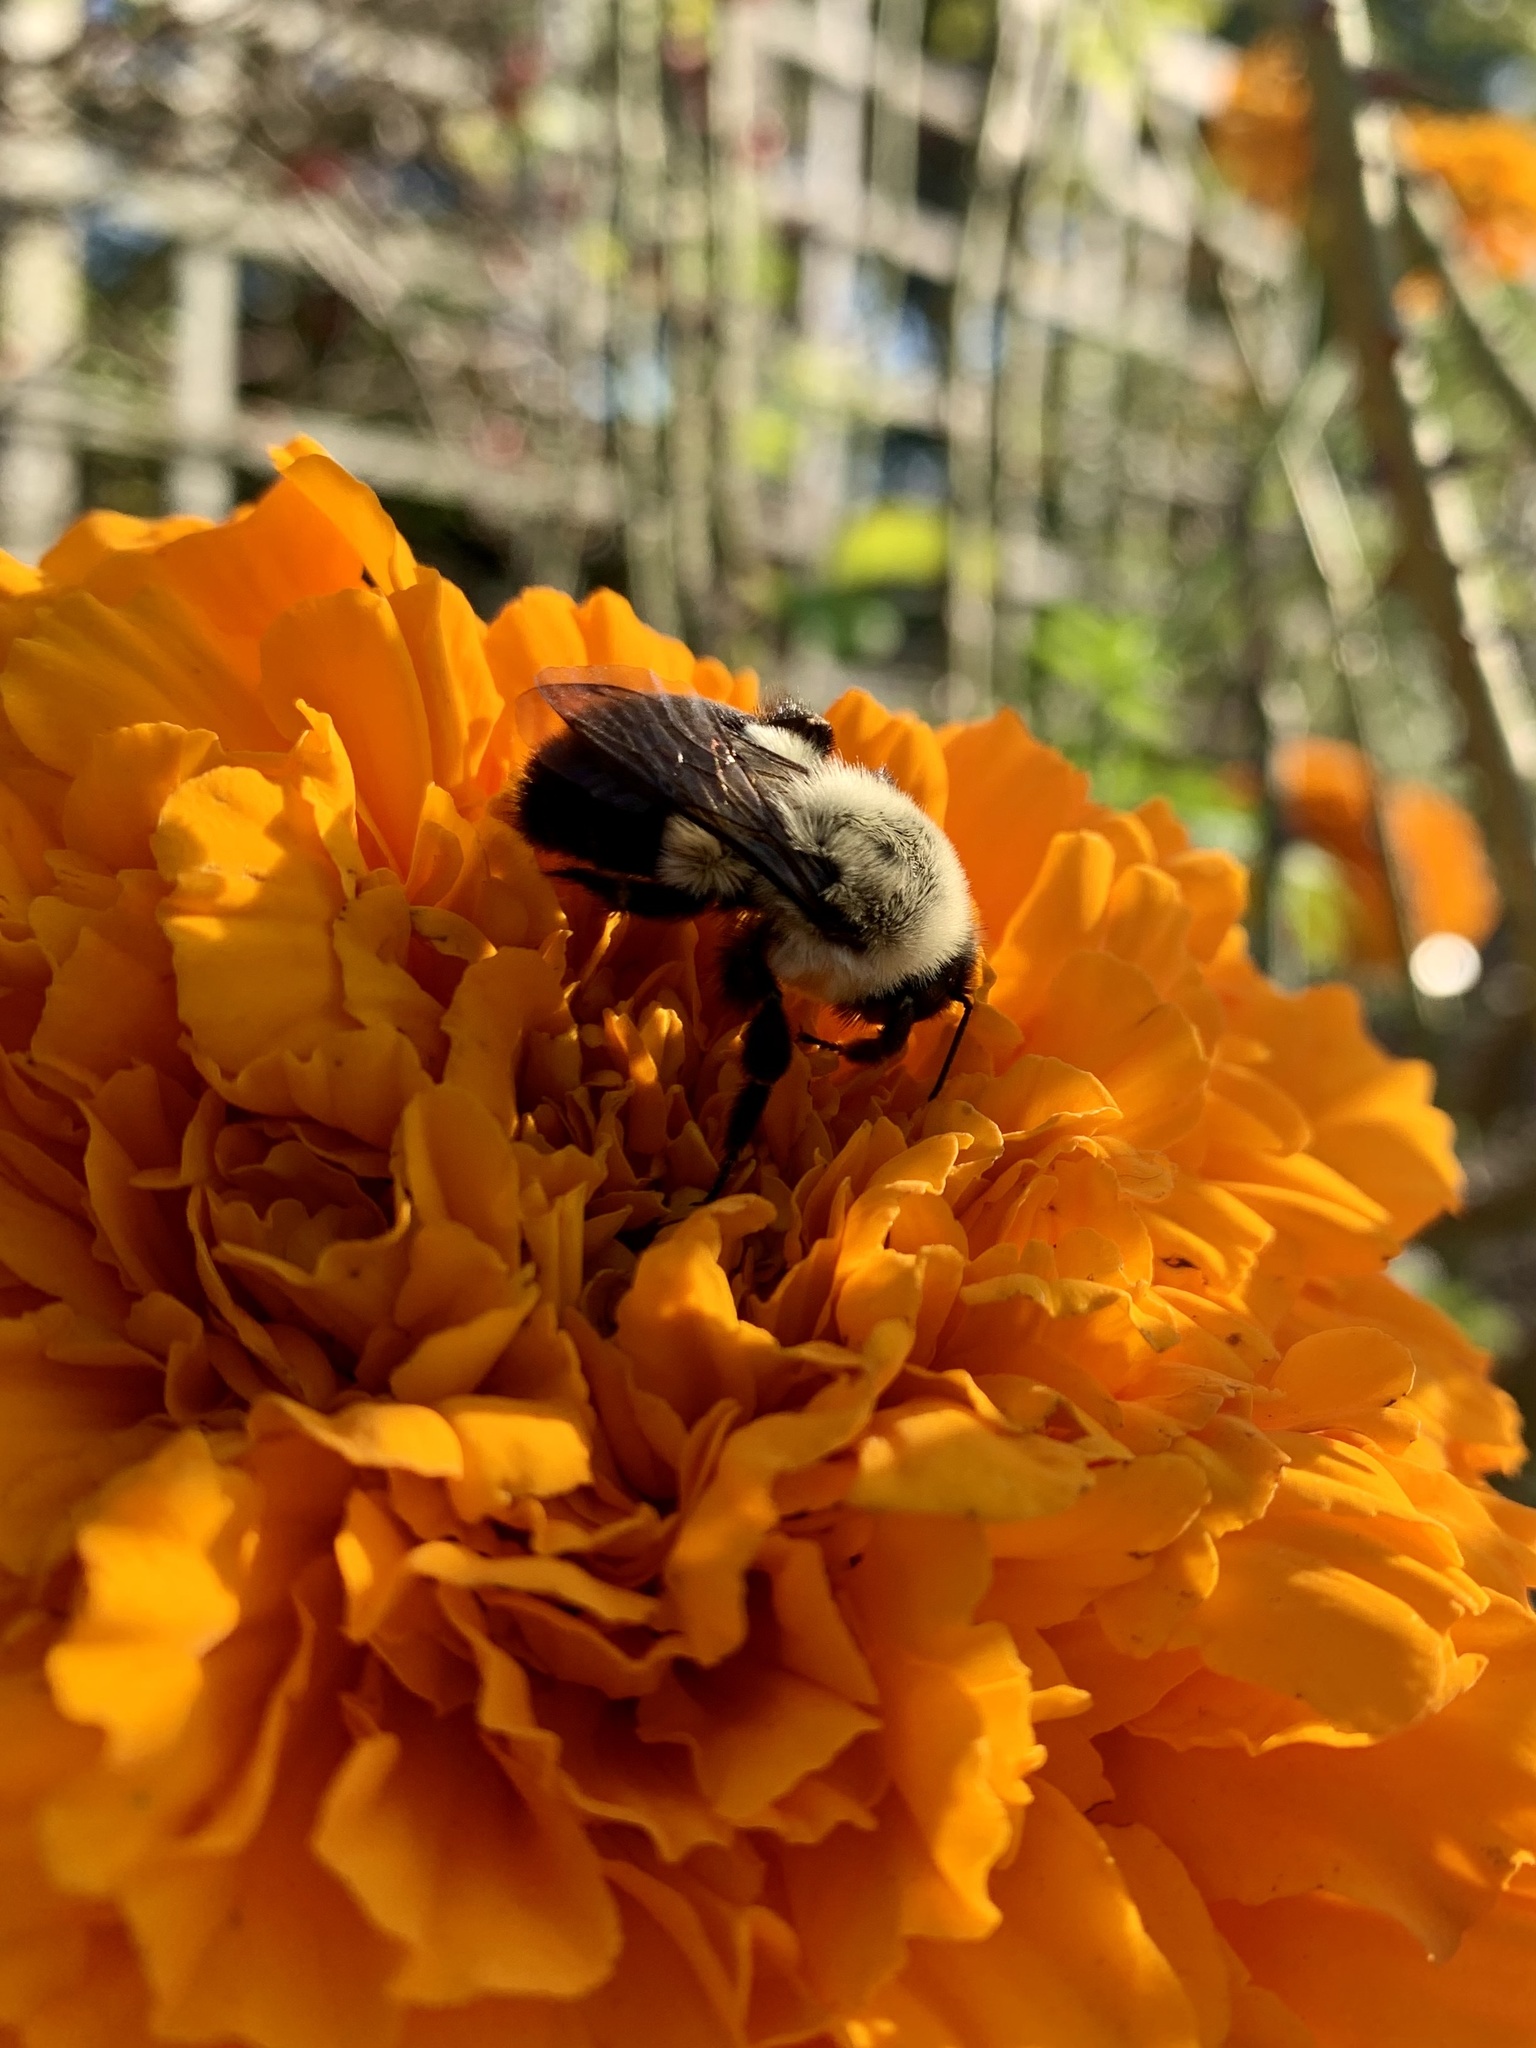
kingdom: Animalia
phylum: Arthropoda
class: Insecta
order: Hymenoptera
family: Apidae
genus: Bombus
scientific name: Bombus impatiens
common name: Common eastern bumble bee
